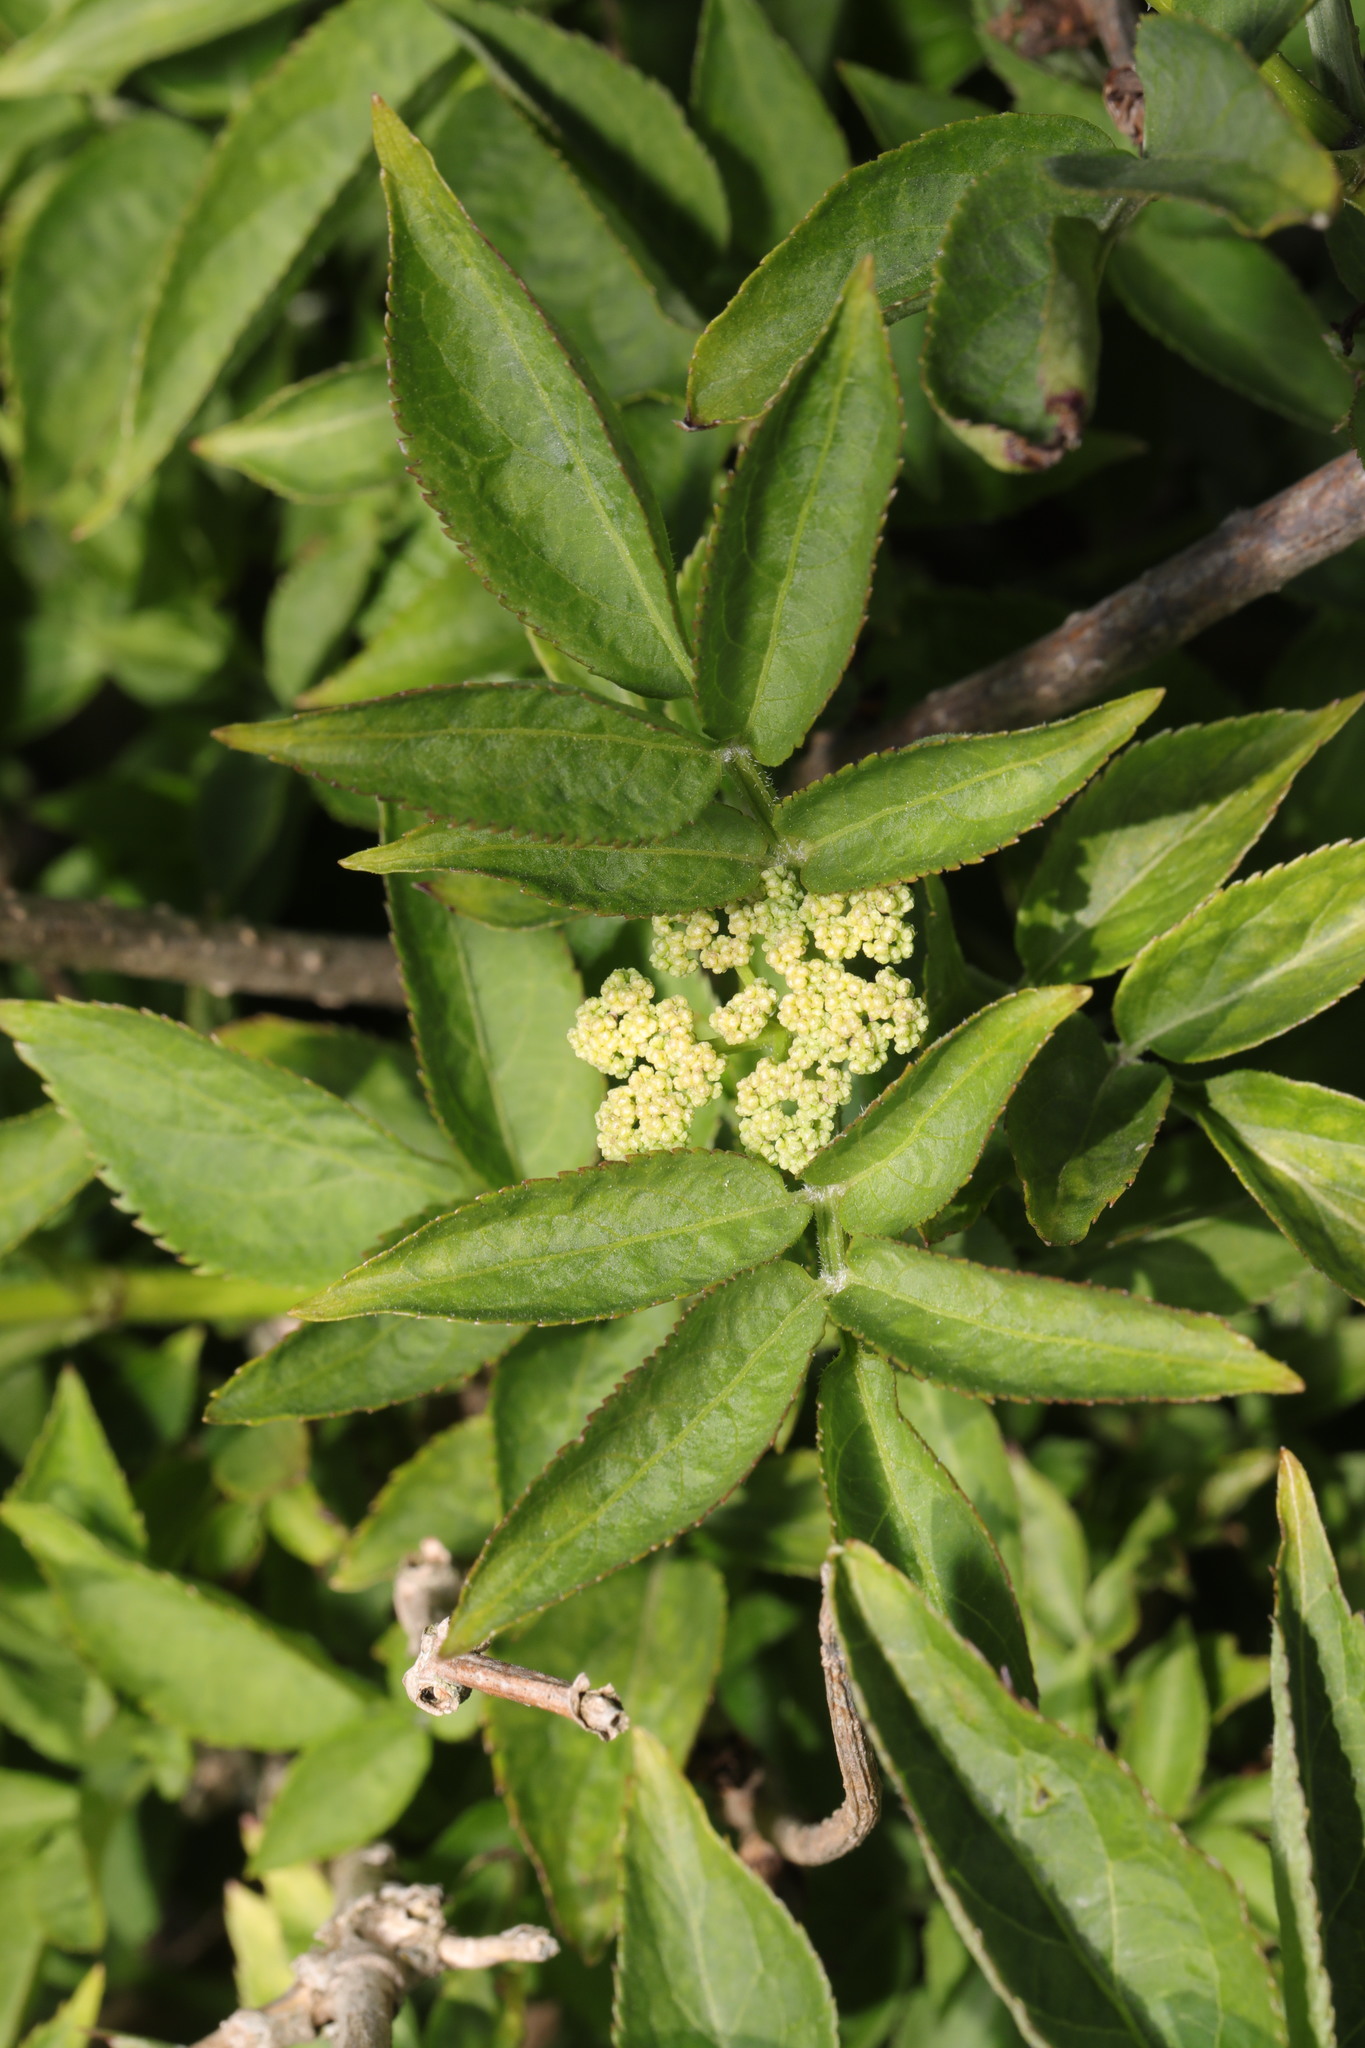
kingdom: Plantae
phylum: Tracheophyta
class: Magnoliopsida
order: Dipsacales
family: Viburnaceae
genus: Sambucus
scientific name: Sambucus nigra
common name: Elder
